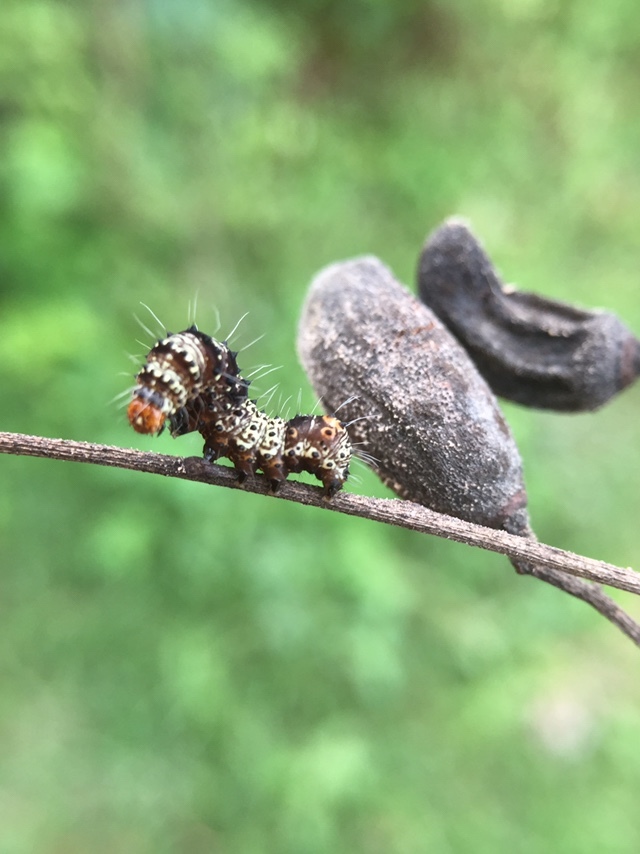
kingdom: Animalia
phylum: Arthropoda
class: Insecta
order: Lepidoptera
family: Noctuidae
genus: Aegocera
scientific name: Aegocera venulia
